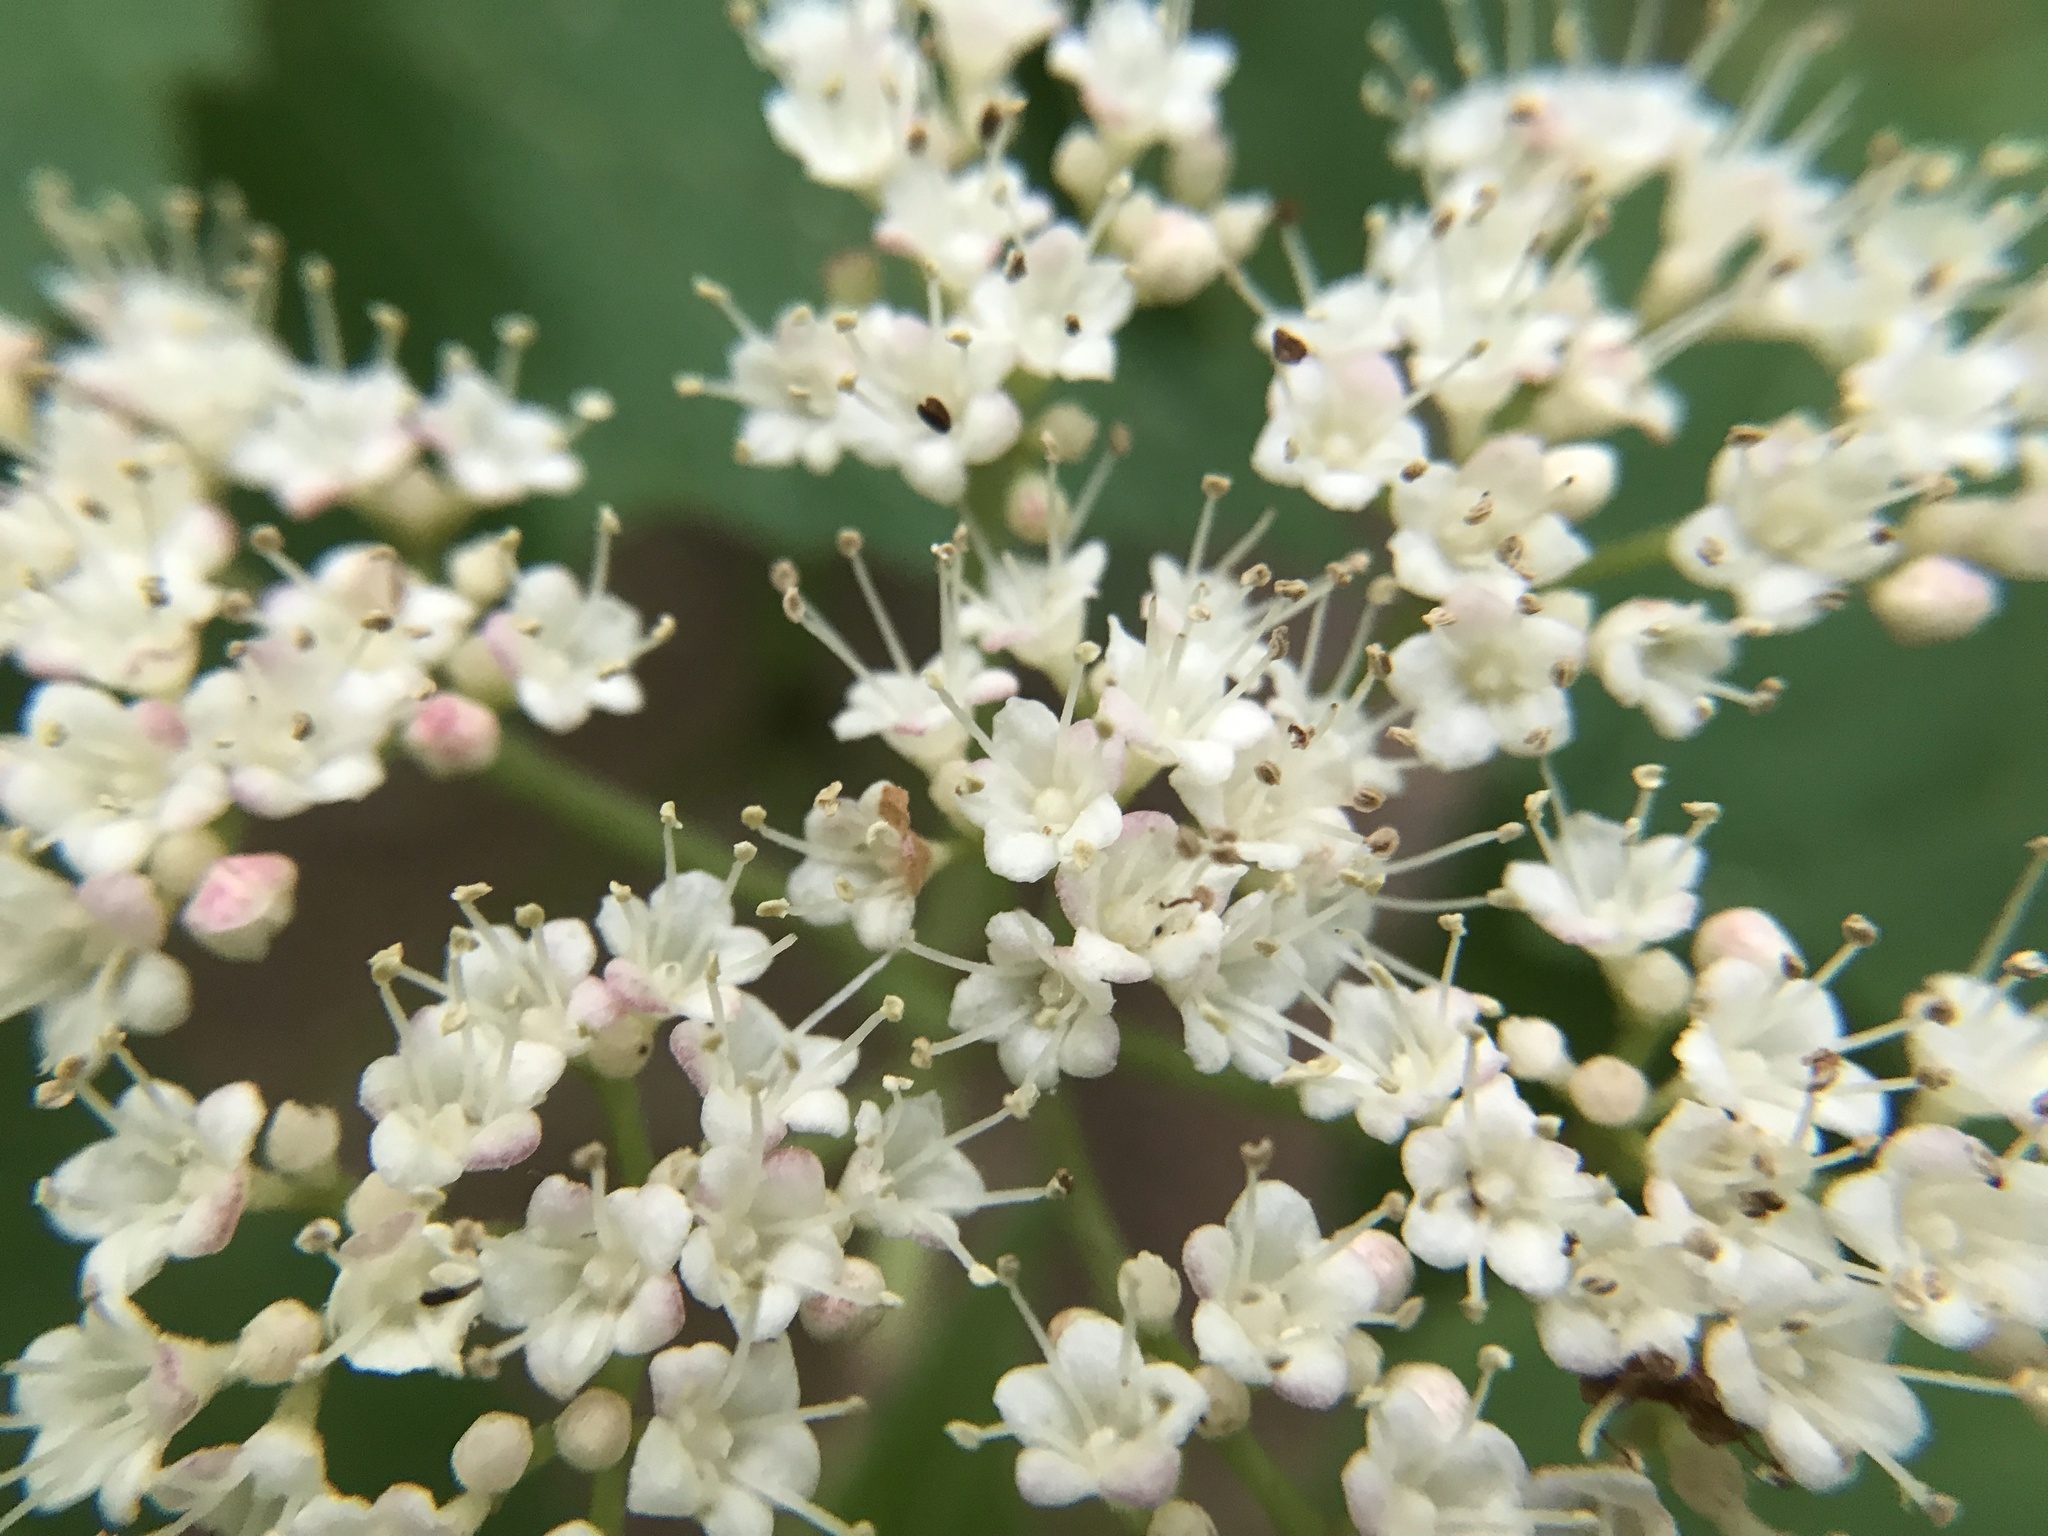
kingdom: Plantae
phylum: Tracheophyta
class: Magnoliopsida
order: Dipsacales
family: Viburnaceae
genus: Viburnum
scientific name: Viburnum acerifolium
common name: Dockmackie
